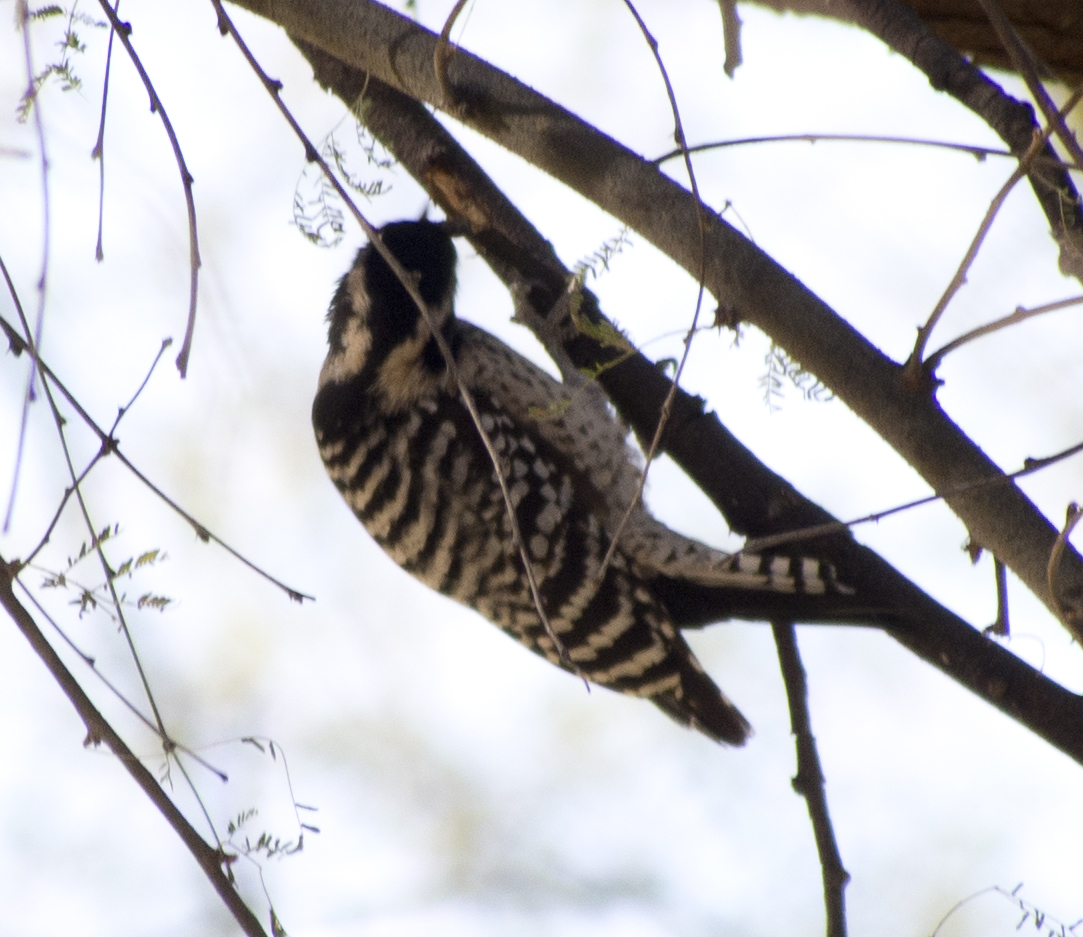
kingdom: Animalia
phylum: Chordata
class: Aves
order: Piciformes
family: Picidae
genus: Dryobates
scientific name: Dryobates scalaris
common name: Ladder-backed woodpecker
